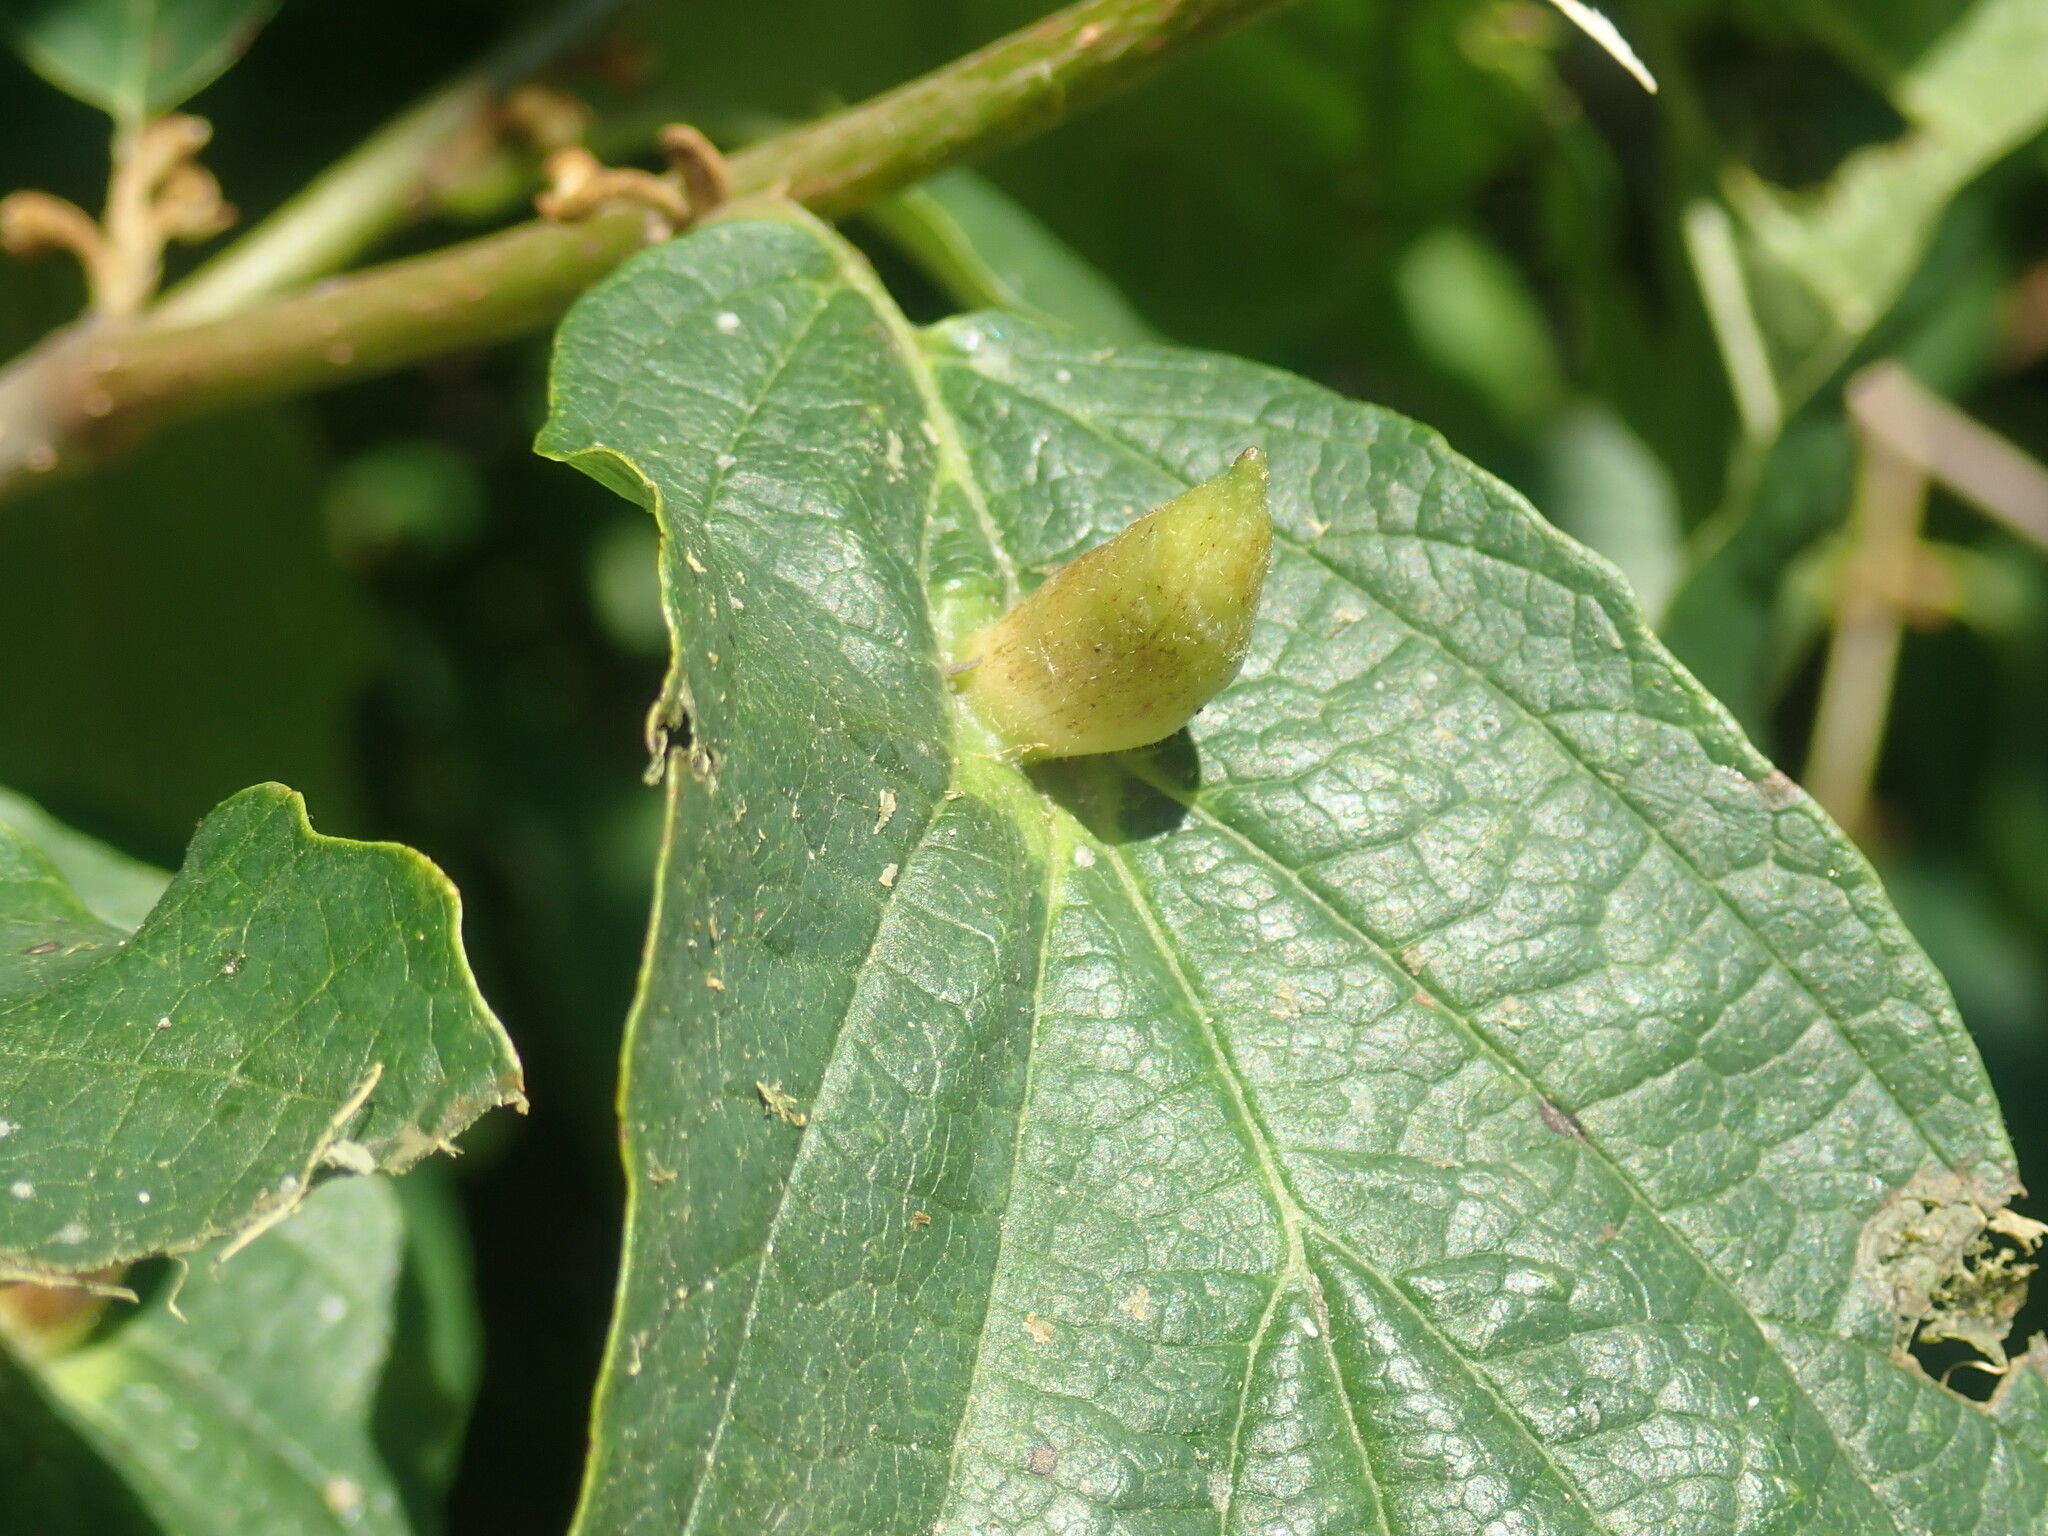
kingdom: Animalia
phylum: Arthropoda
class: Insecta
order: Hemiptera
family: Aphididae
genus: Hormaphis
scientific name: Hormaphis hamamelidis
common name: Witch-hazel cone gall aphid
